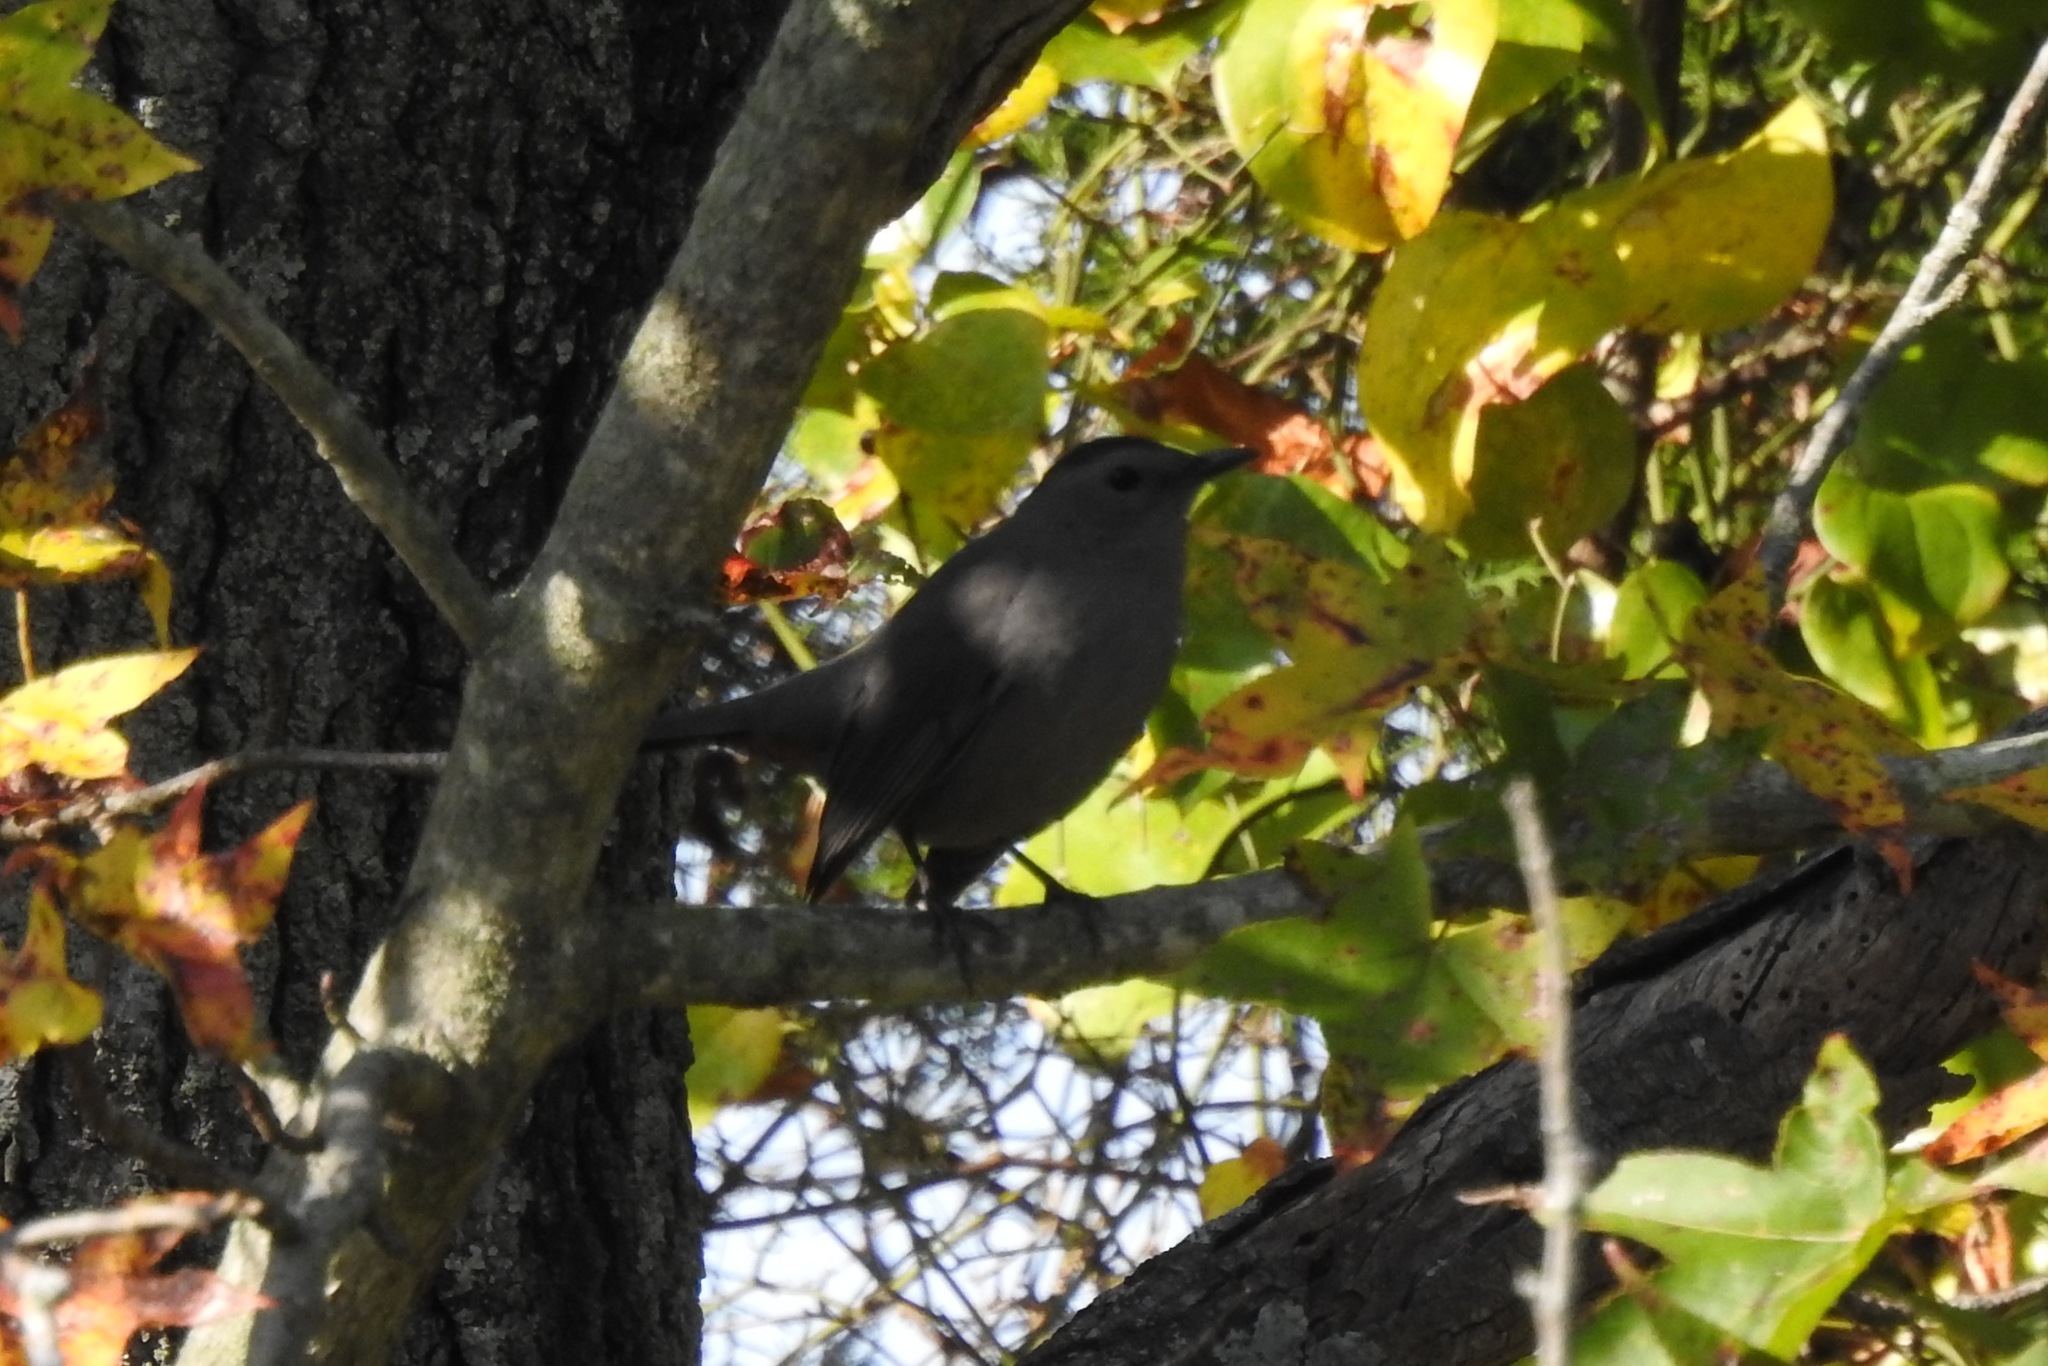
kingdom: Animalia
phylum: Chordata
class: Aves
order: Passeriformes
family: Mimidae
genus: Dumetella
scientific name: Dumetella carolinensis
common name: Gray catbird
